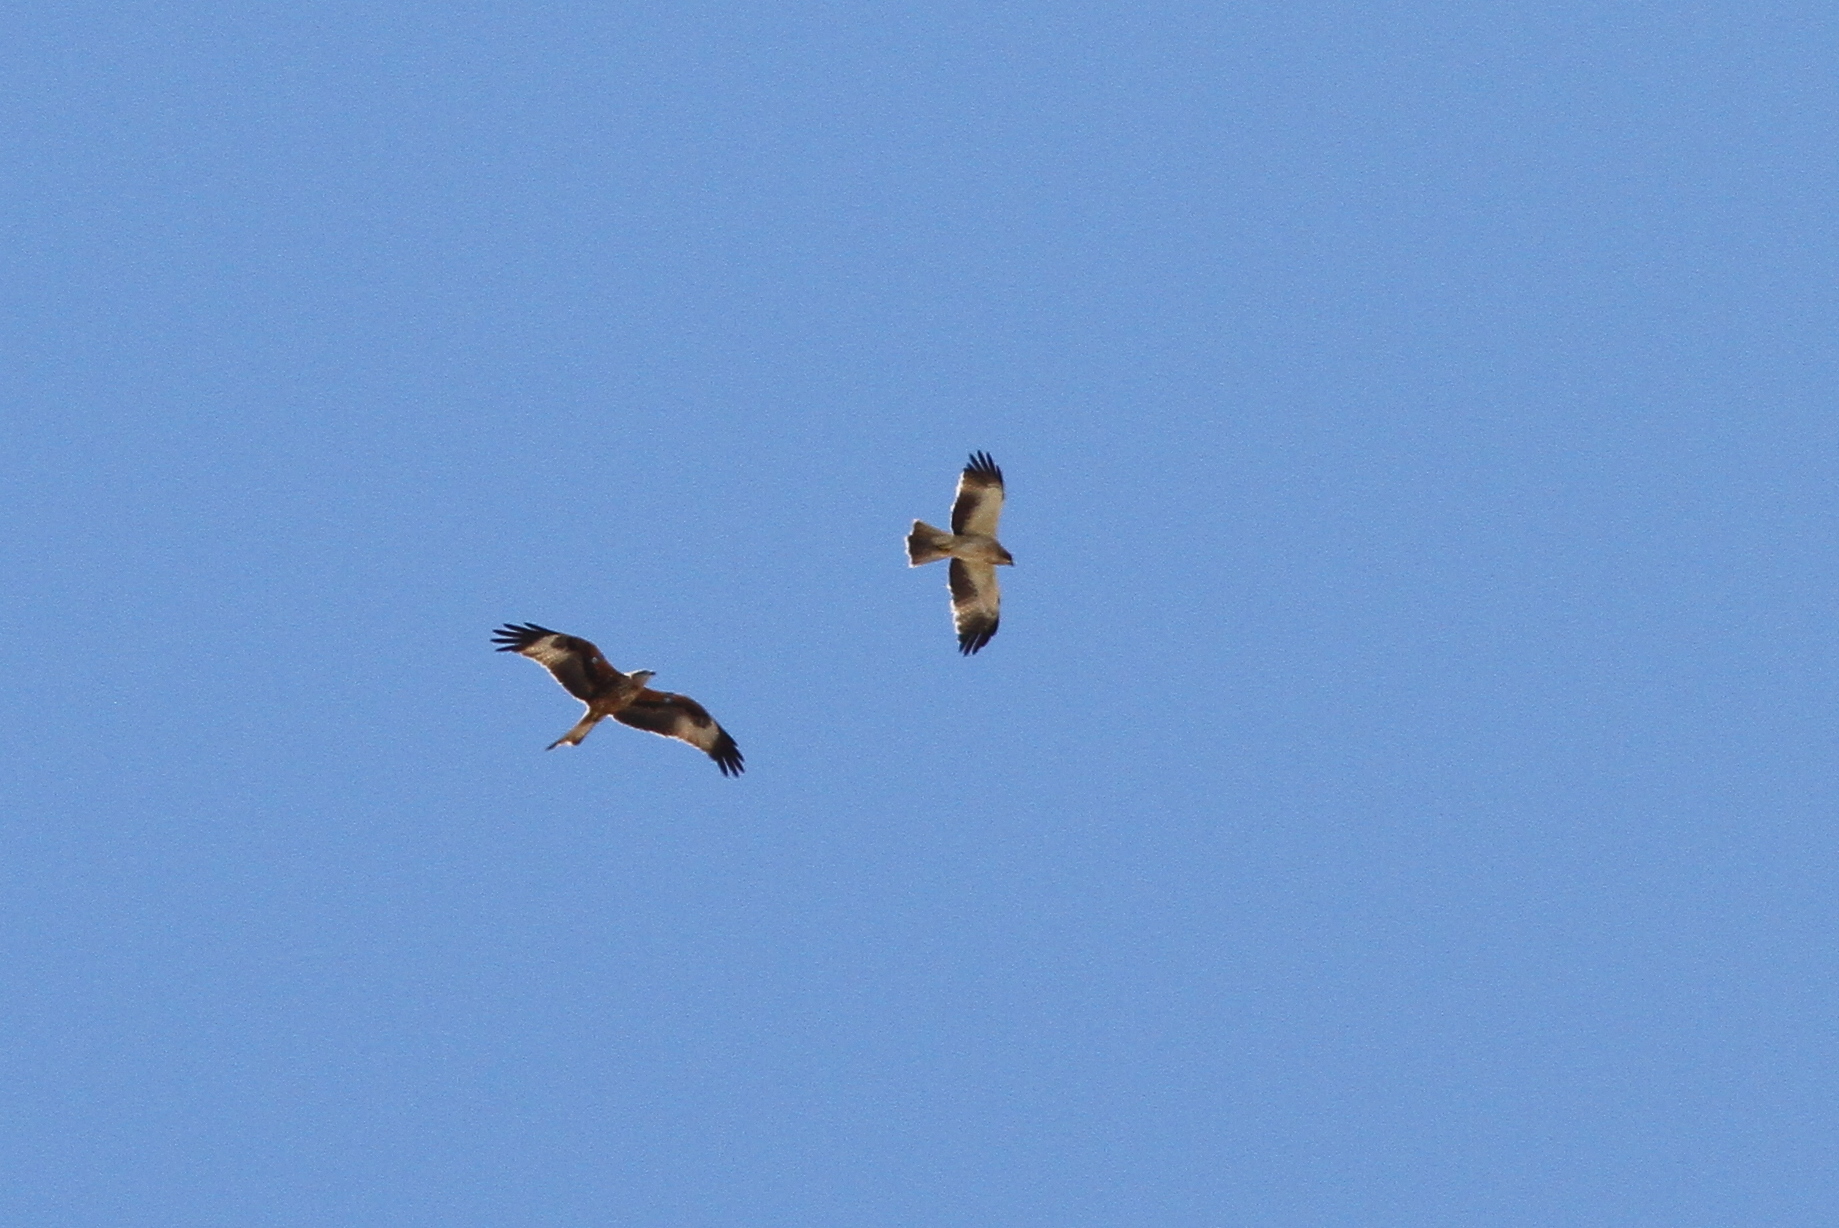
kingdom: Animalia
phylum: Chordata
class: Aves
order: Accipitriformes
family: Accipitridae
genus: Milvus
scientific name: Milvus milvus
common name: Red kite
